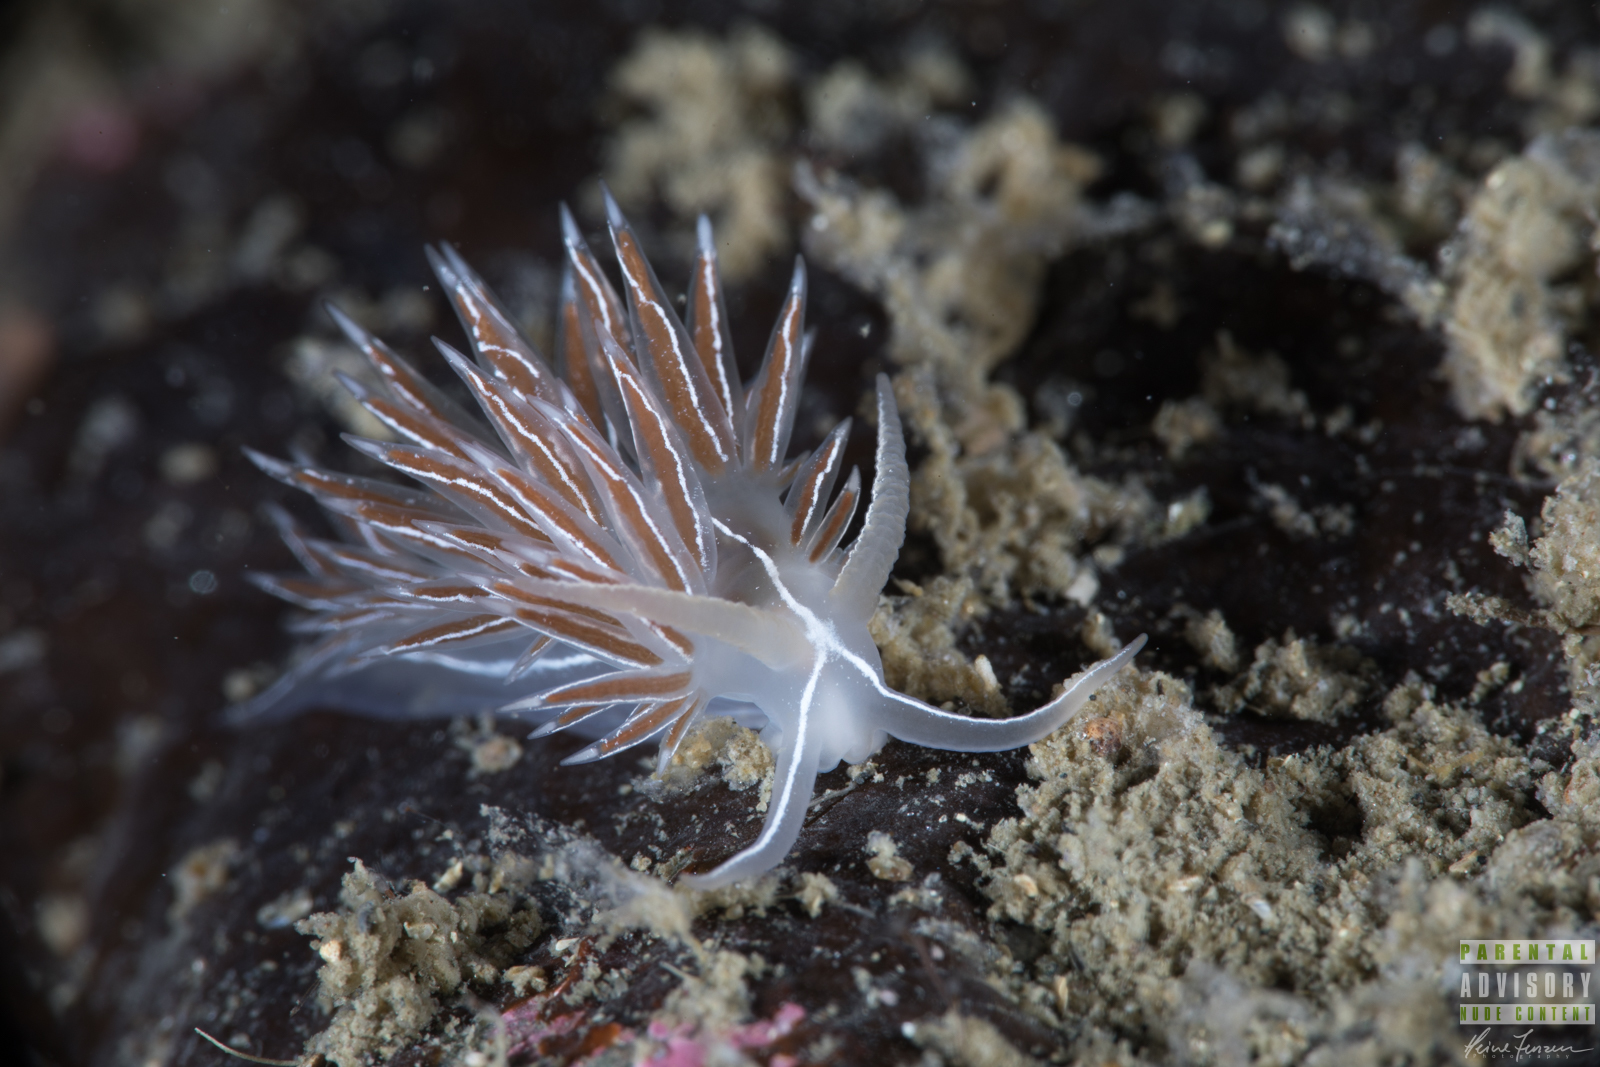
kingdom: Animalia
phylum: Mollusca
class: Gastropoda
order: Nudibranchia
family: Coryphellidae
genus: Coryphella
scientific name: Coryphella chriskaugei
